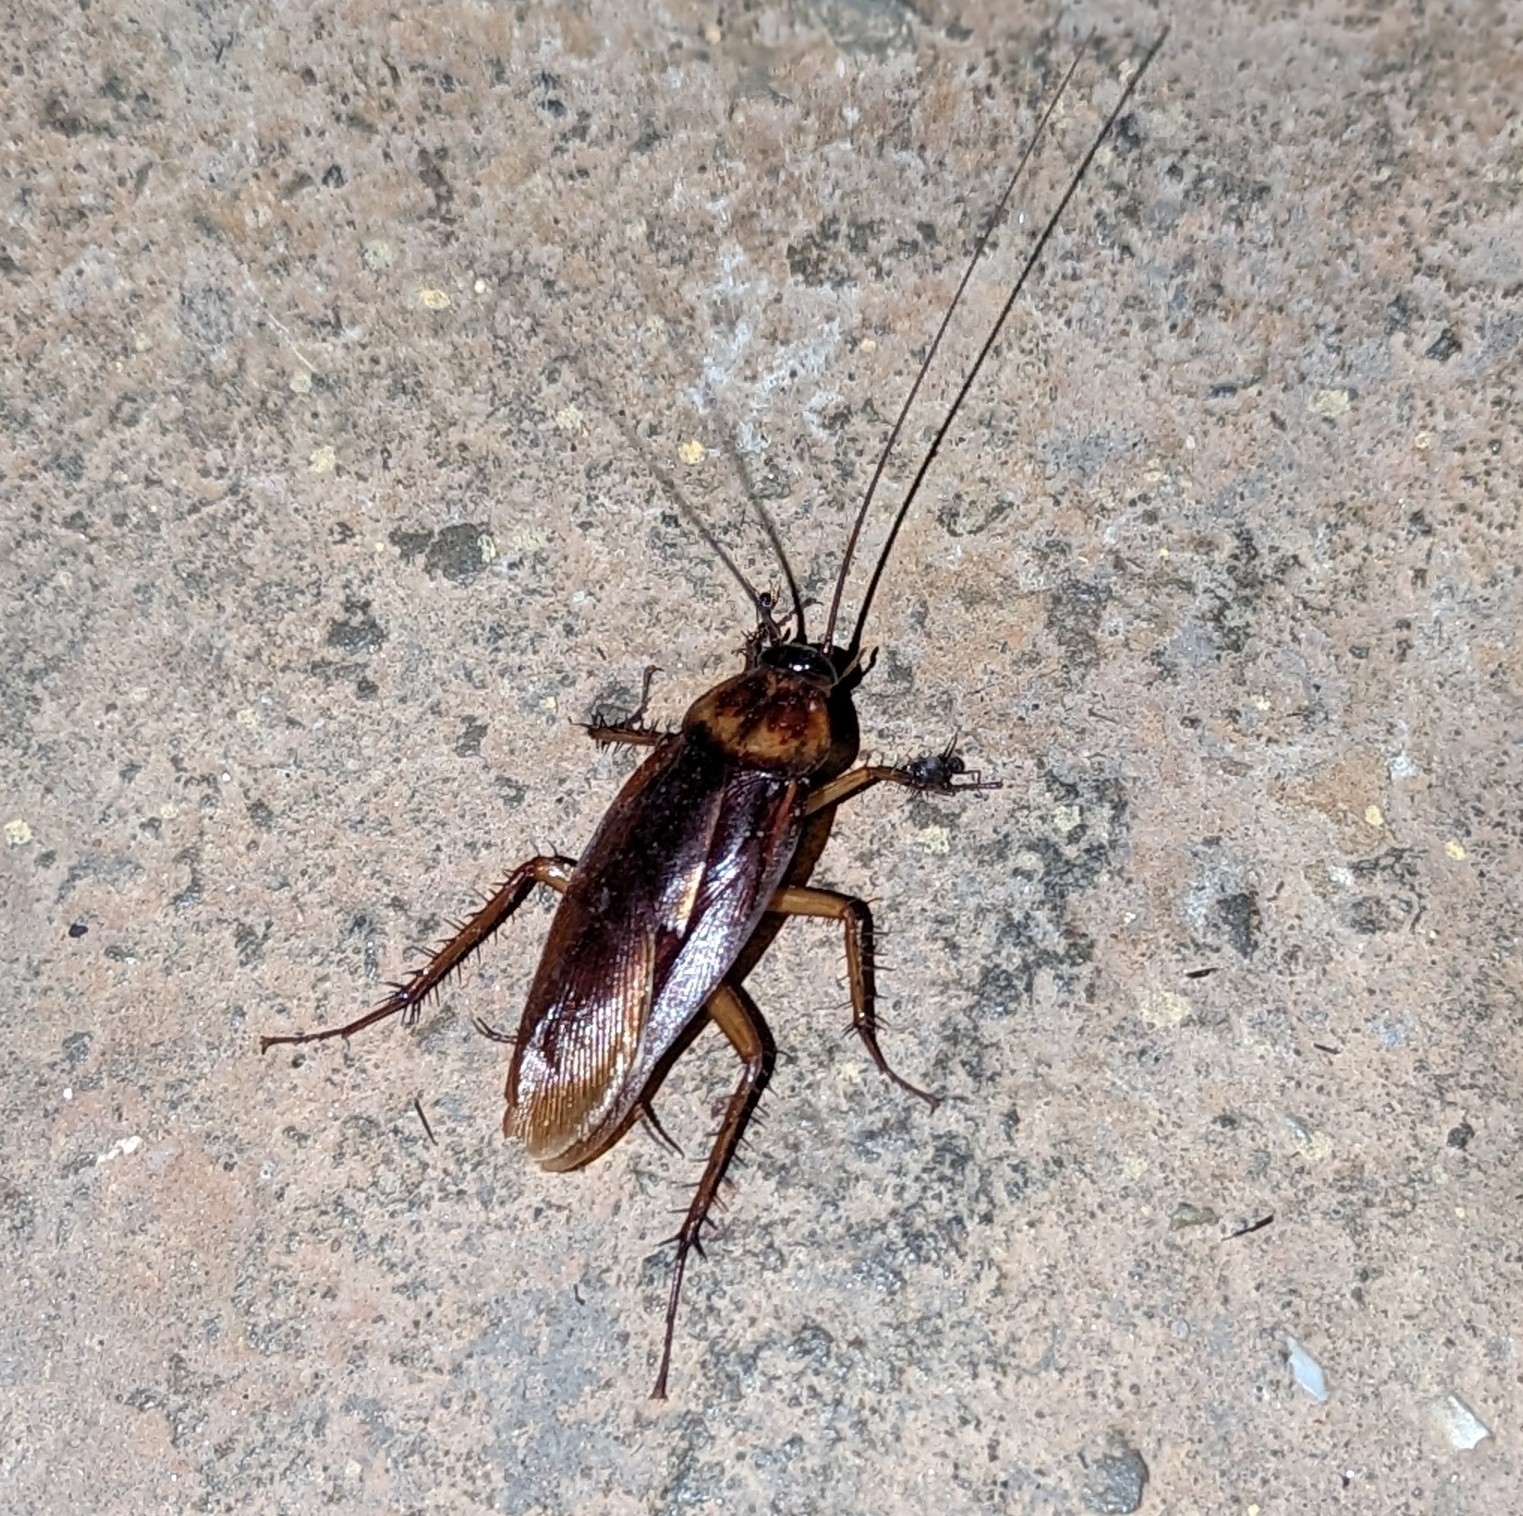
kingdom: Animalia
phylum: Arthropoda
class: Insecta
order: Blattodea
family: Blattidae
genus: Periplaneta
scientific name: Periplaneta americana
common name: American cockroach
